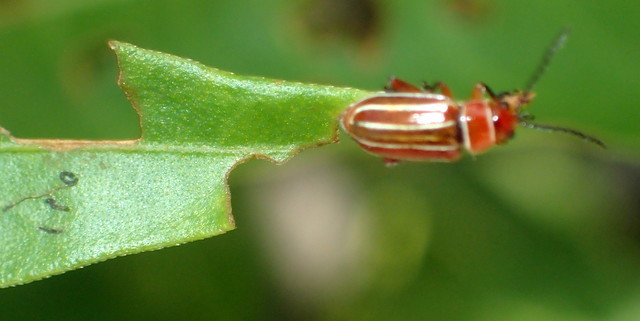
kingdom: Animalia
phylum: Arthropoda
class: Insecta
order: Coleoptera
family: Chrysomelidae
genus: Disonycha
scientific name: Disonycha conjugata
